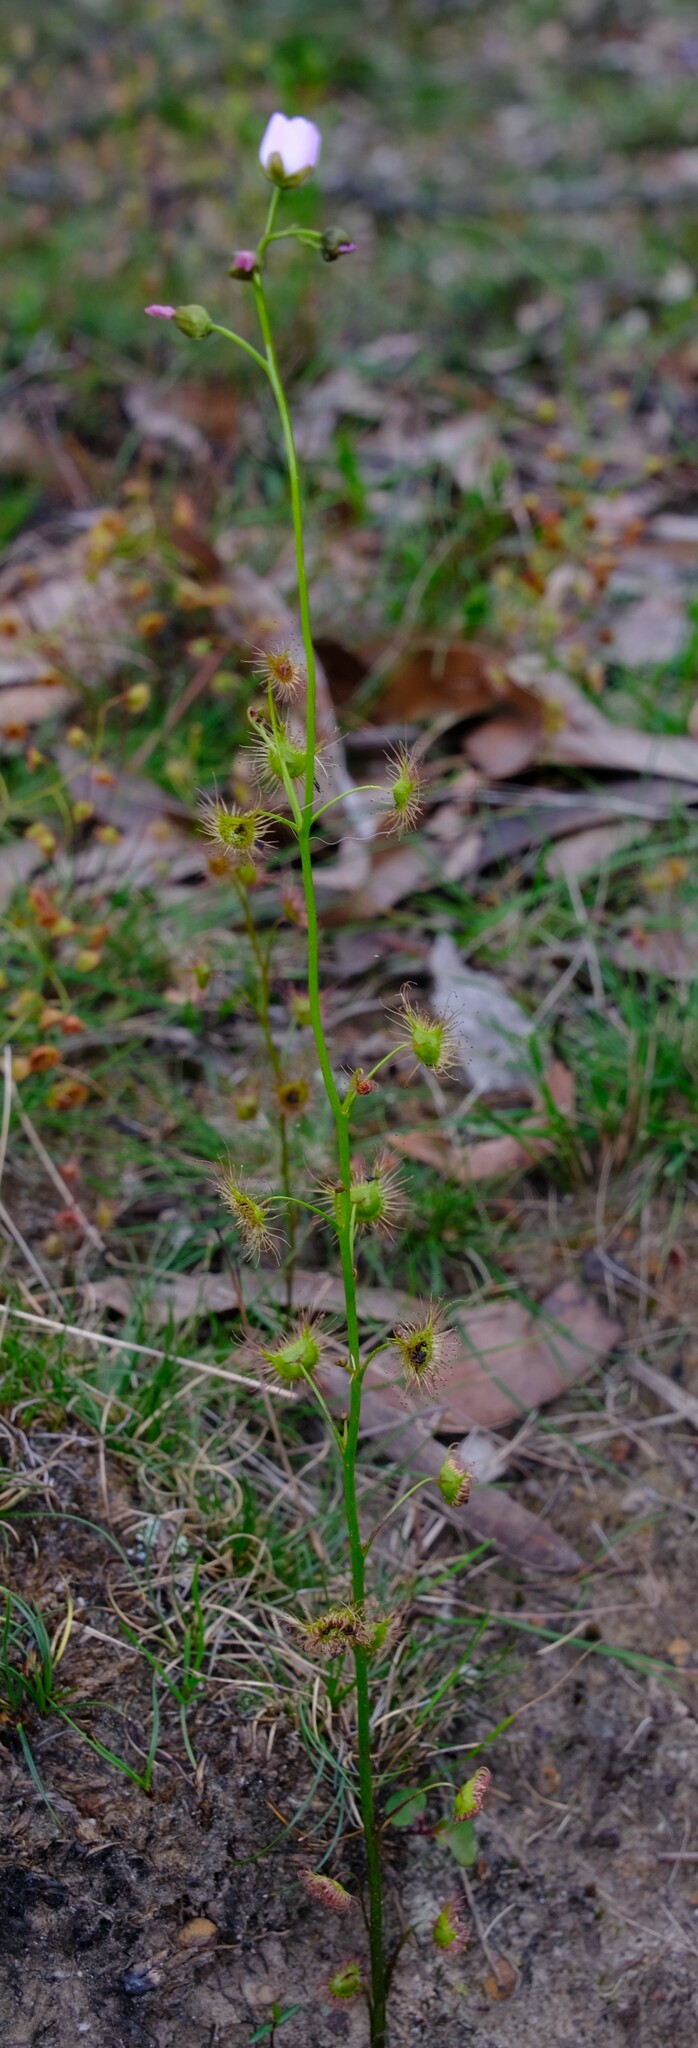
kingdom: Plantae
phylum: Tracheophyta
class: Magnoliopsida
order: Caryophyllales
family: Droseraceae
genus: Drosera
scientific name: Drosera peltata
